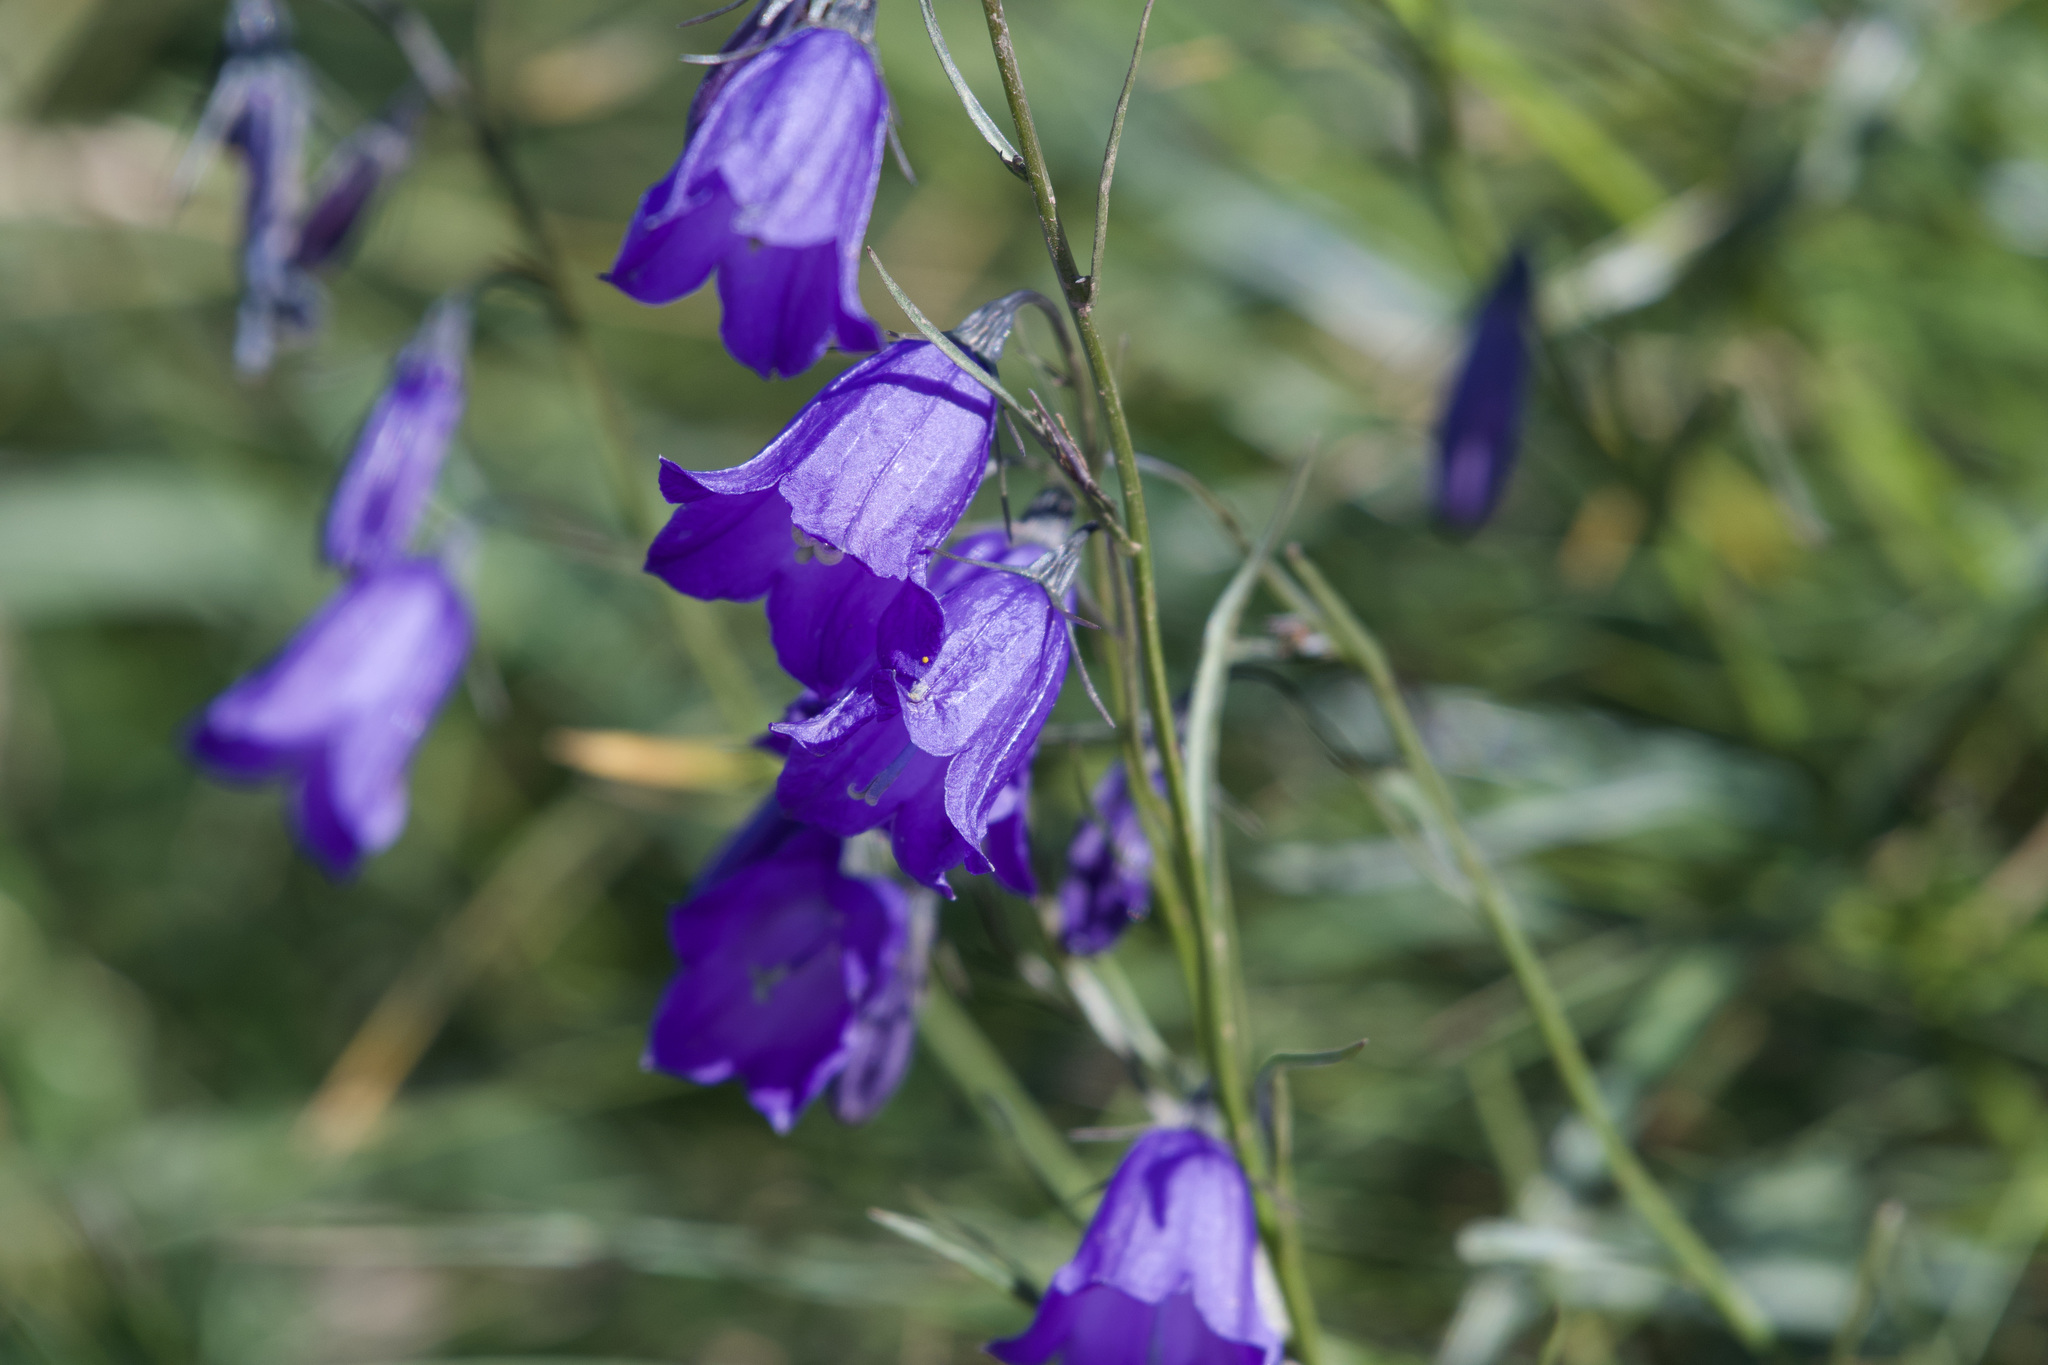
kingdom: Plantae
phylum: Tracheophyta
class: Magnoliopsida
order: Asterales
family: Campanulaceae
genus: Campanula
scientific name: Campanula scheuchzeri
